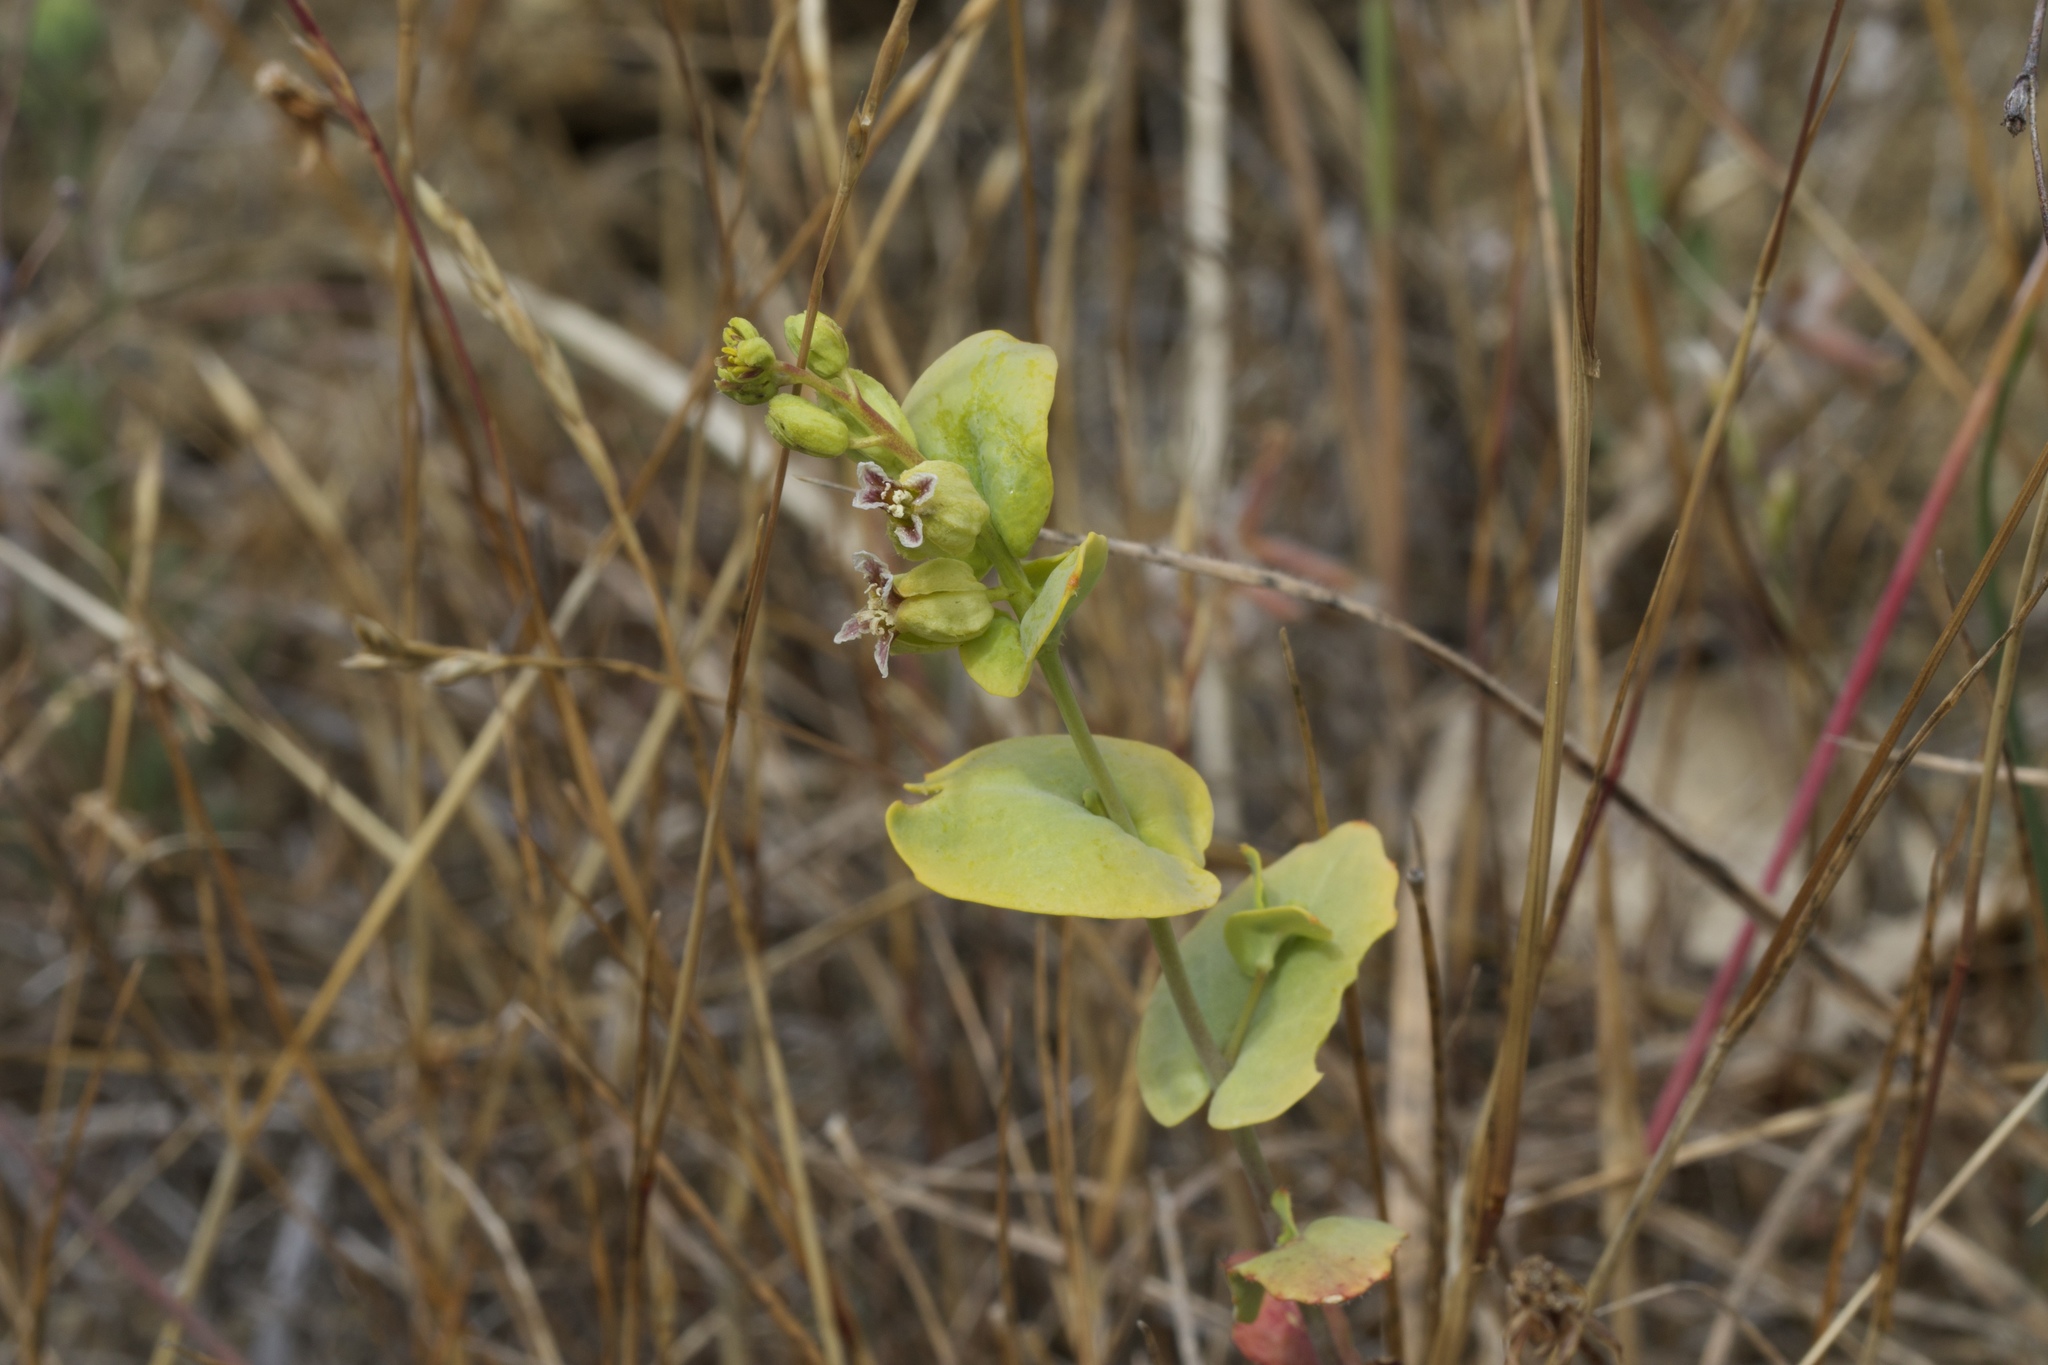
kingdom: Plantae
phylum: Tracheophyta
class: Magnoliopsida
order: Brassicales
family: Brassicaceae
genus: Streptanthus
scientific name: Streptanthus anomalus
